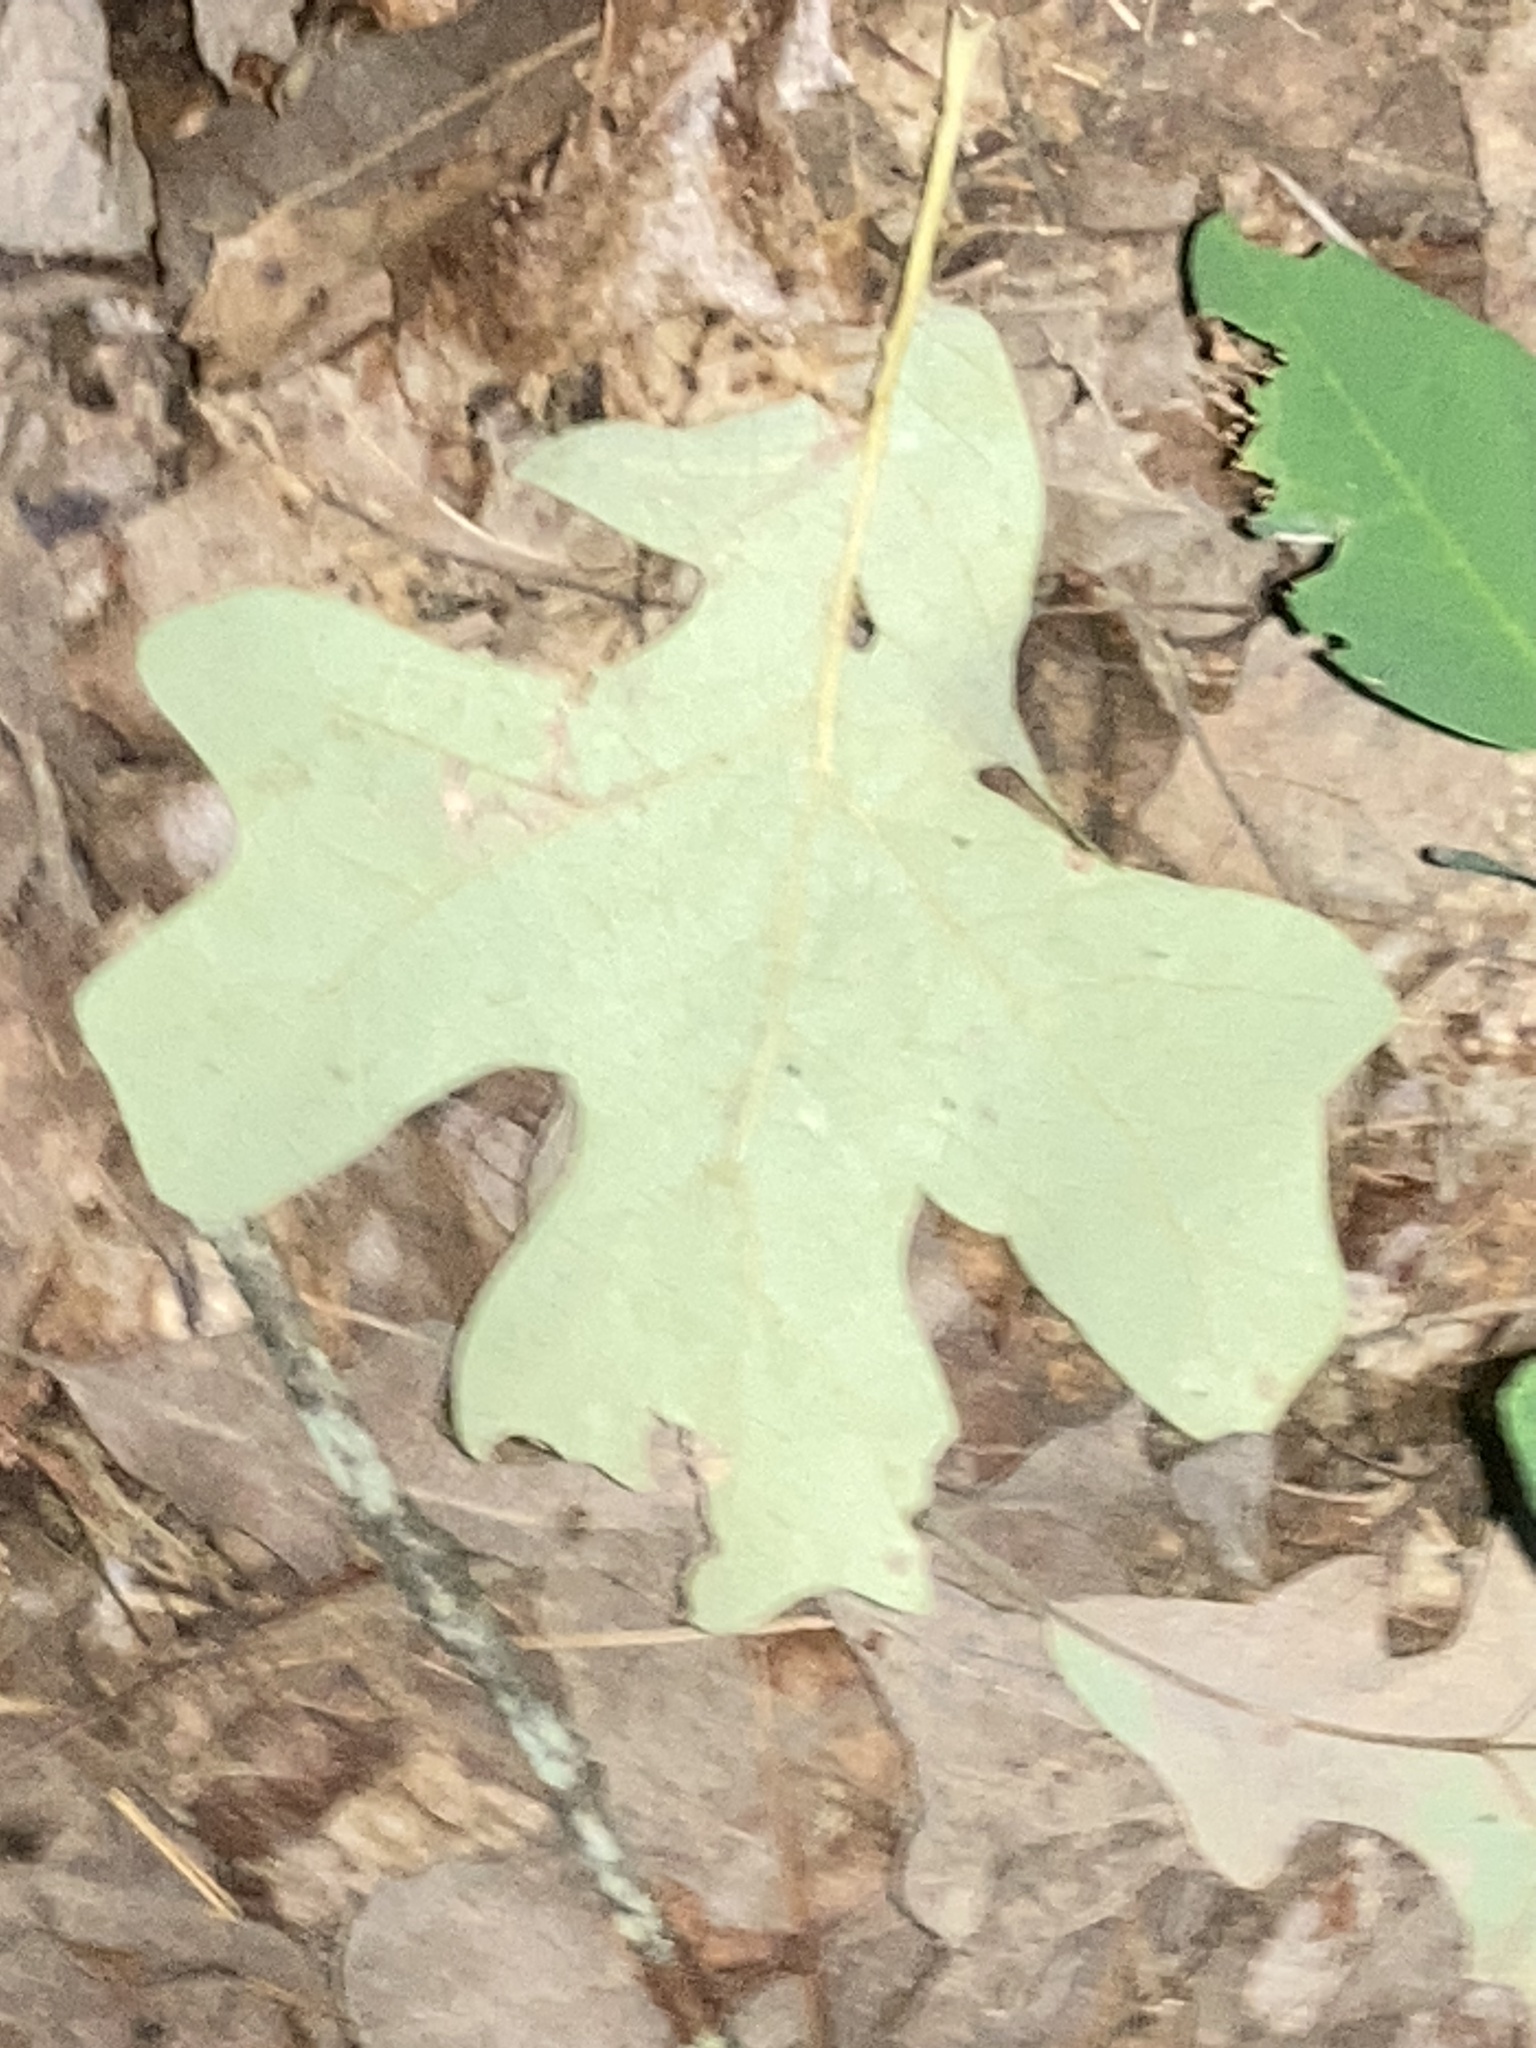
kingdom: Plantae
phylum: Tracheophyta
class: Magnoliopsida
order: Fagales
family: Fagaceae
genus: Quercus
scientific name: Quercus stellata
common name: Post oak
